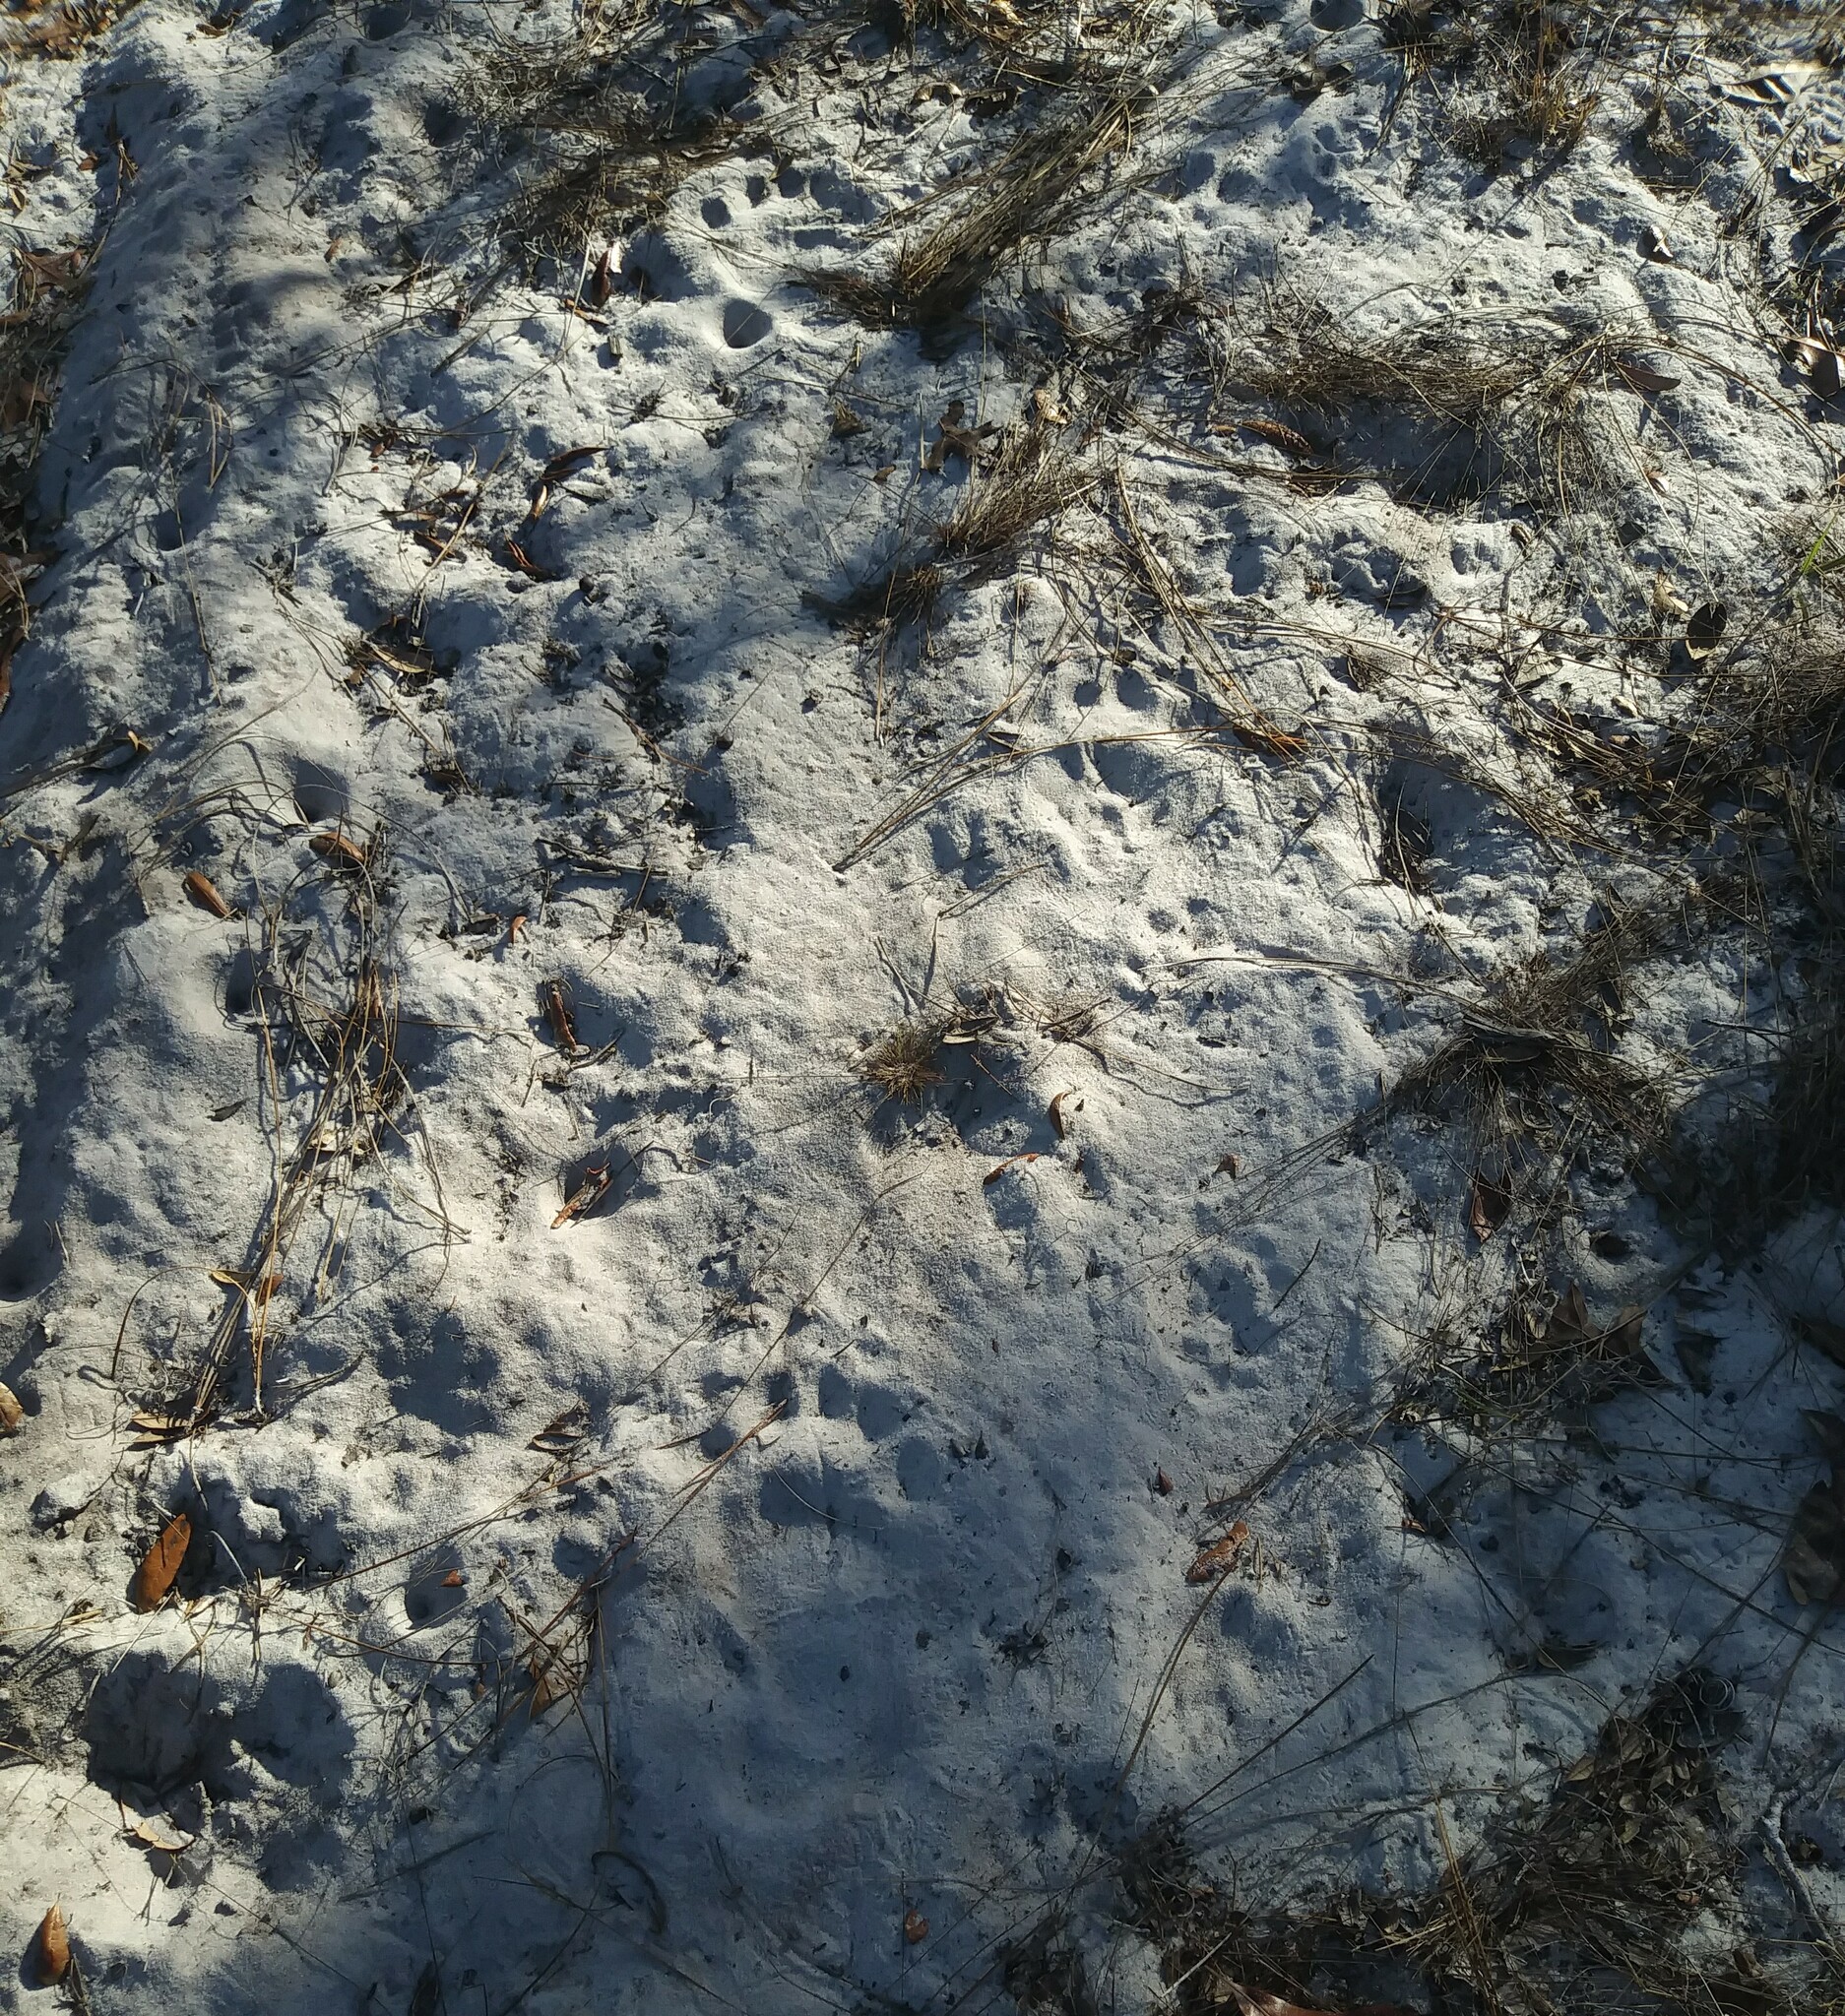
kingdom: Animalia
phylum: Chordata
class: Mammalia
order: Carnivora
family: Ursidae
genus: Ursus
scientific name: Ursus americanus
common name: American black bear
